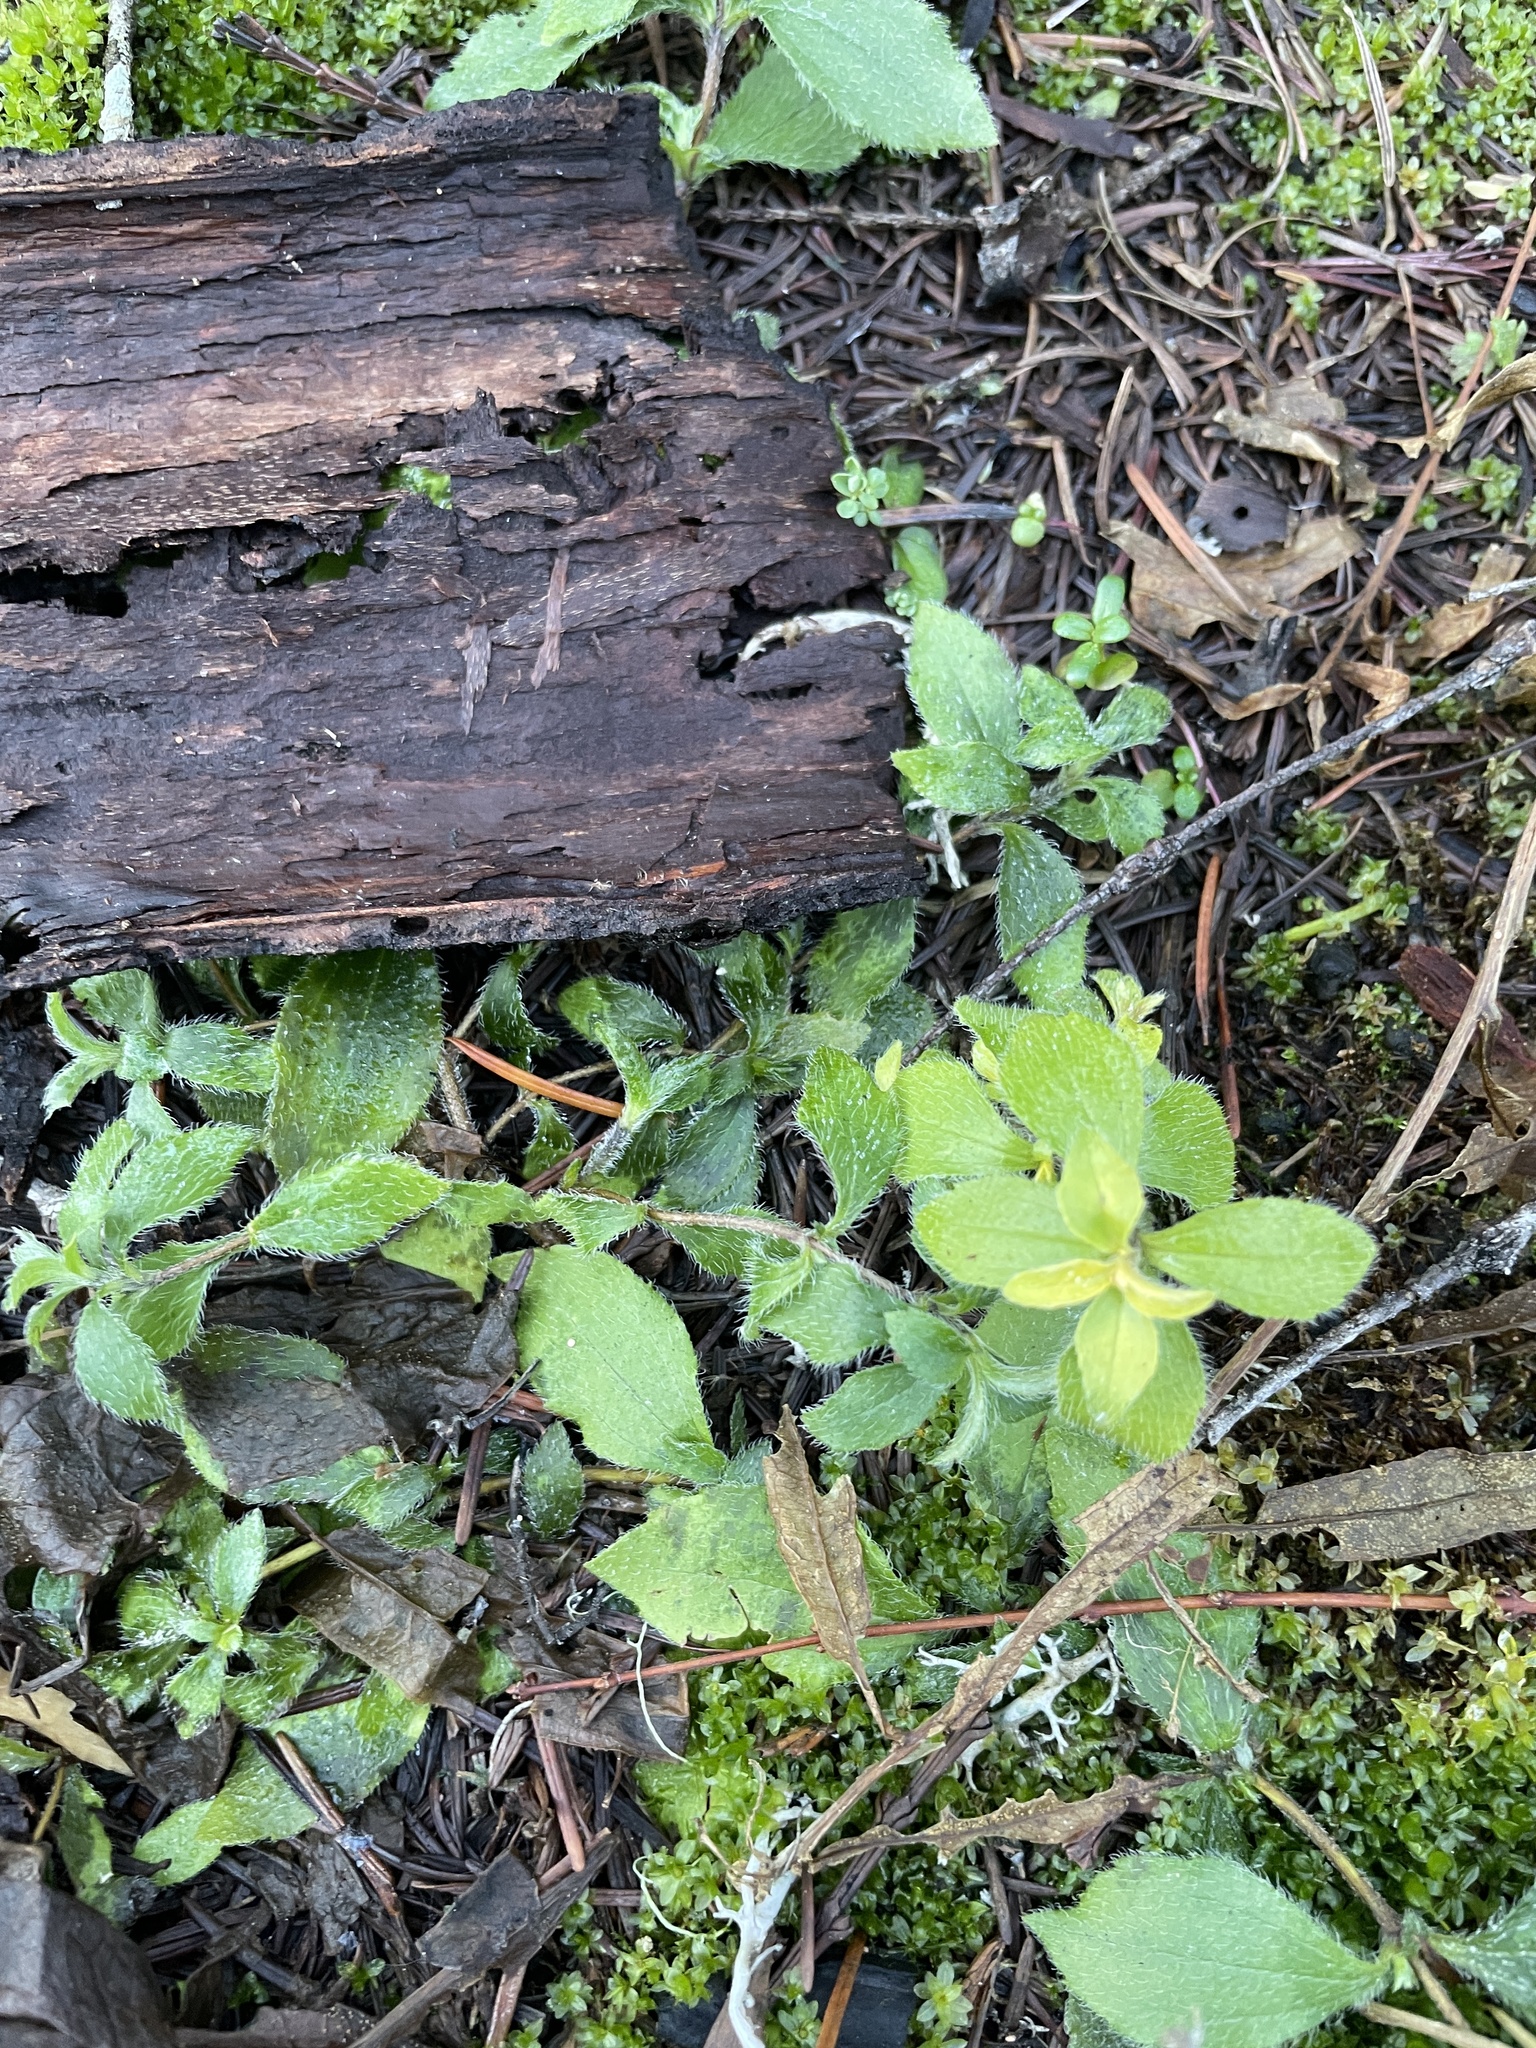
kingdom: Plantae
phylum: Tracheophyta
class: Magnoliopsida
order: Cornales
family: Hydrangeaceae
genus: Whipplea
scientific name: Whipplea modesta
